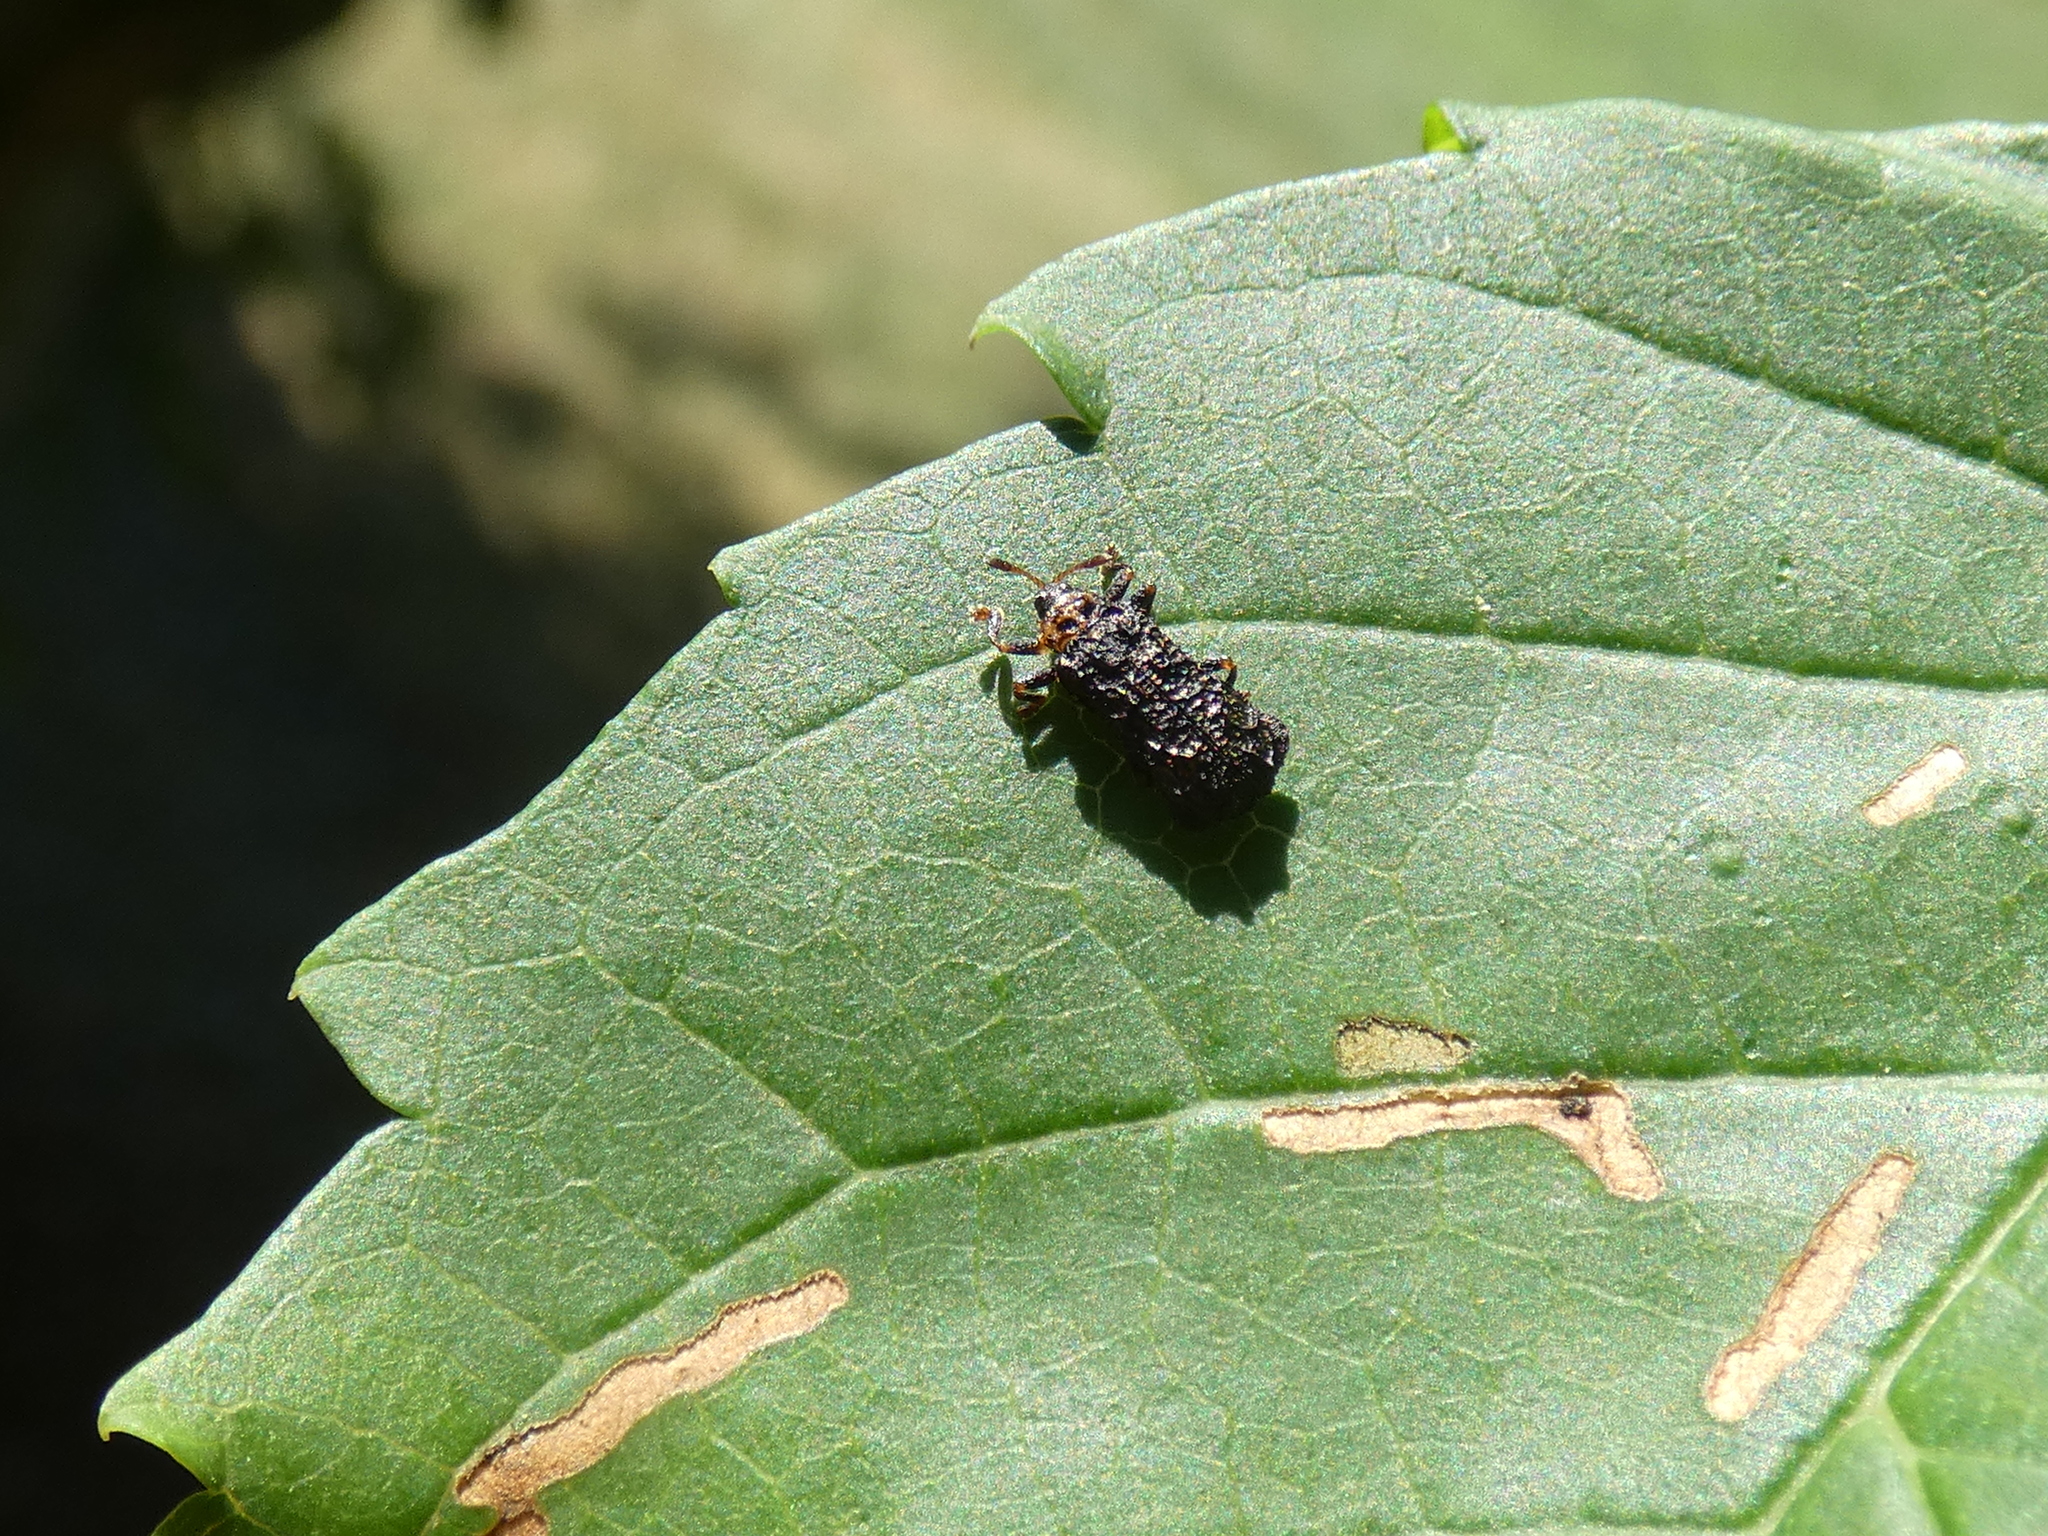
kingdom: Animalia
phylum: Arthropoda
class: Insecta
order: Coleoptera
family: Chrysomelidae
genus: Octotoma
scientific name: Octotoma plicatula
